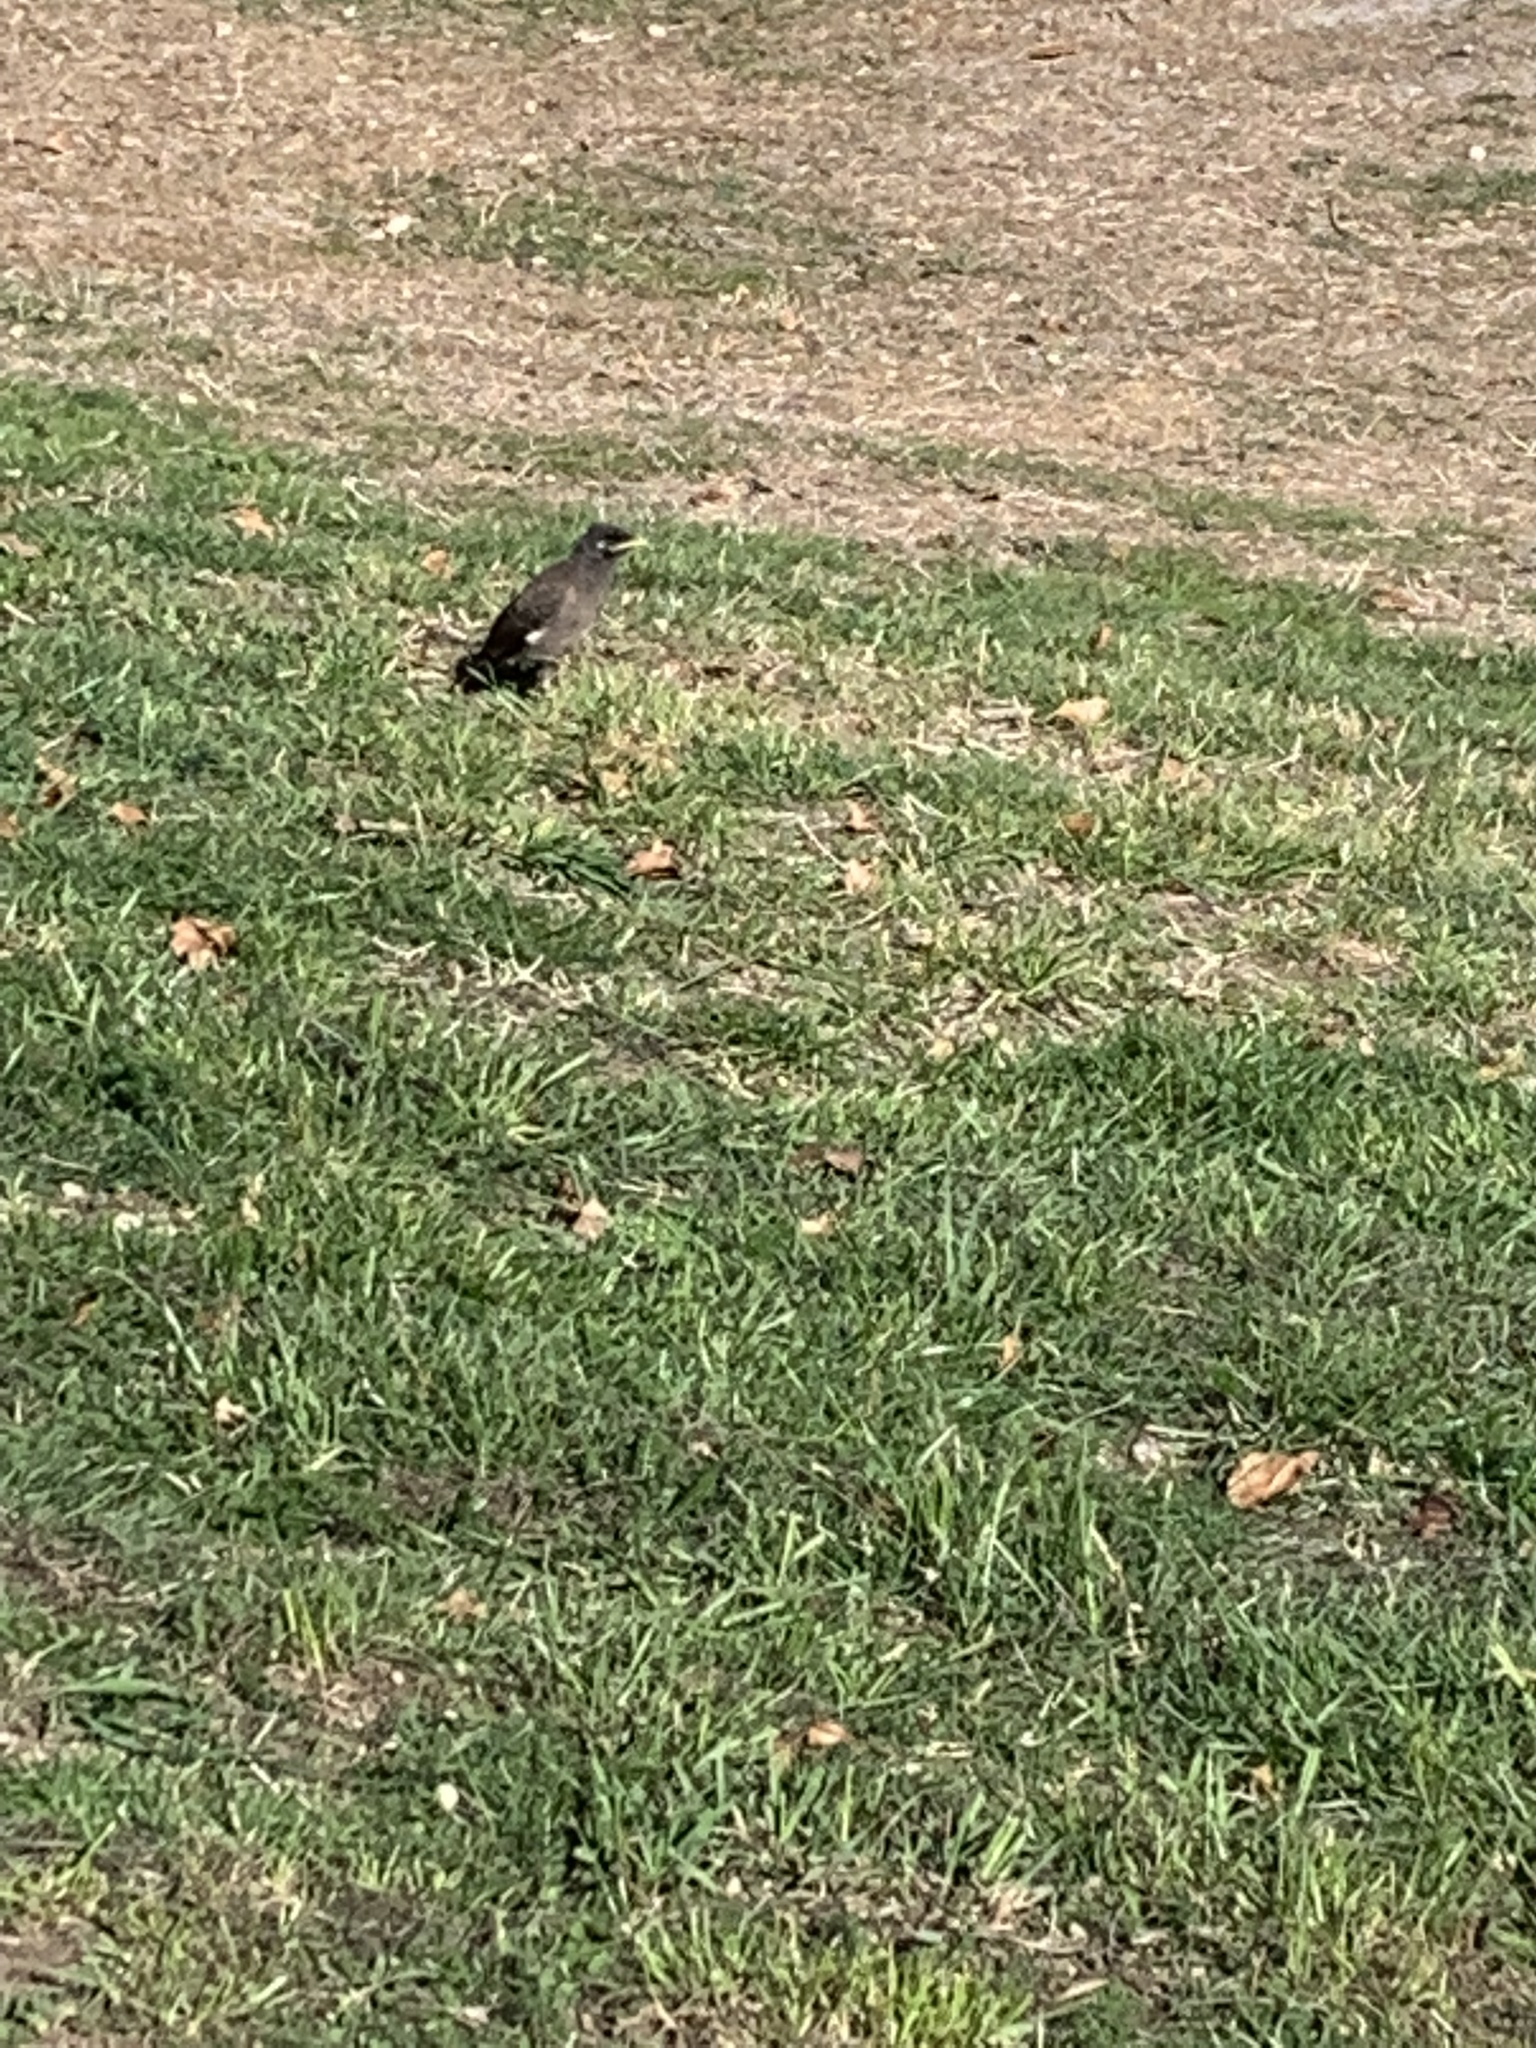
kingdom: Animalia
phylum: Chordata
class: Aves
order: Passeriformes
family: Sturnidae
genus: Acridotheres
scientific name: Acridotheres tristis
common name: Common myna
